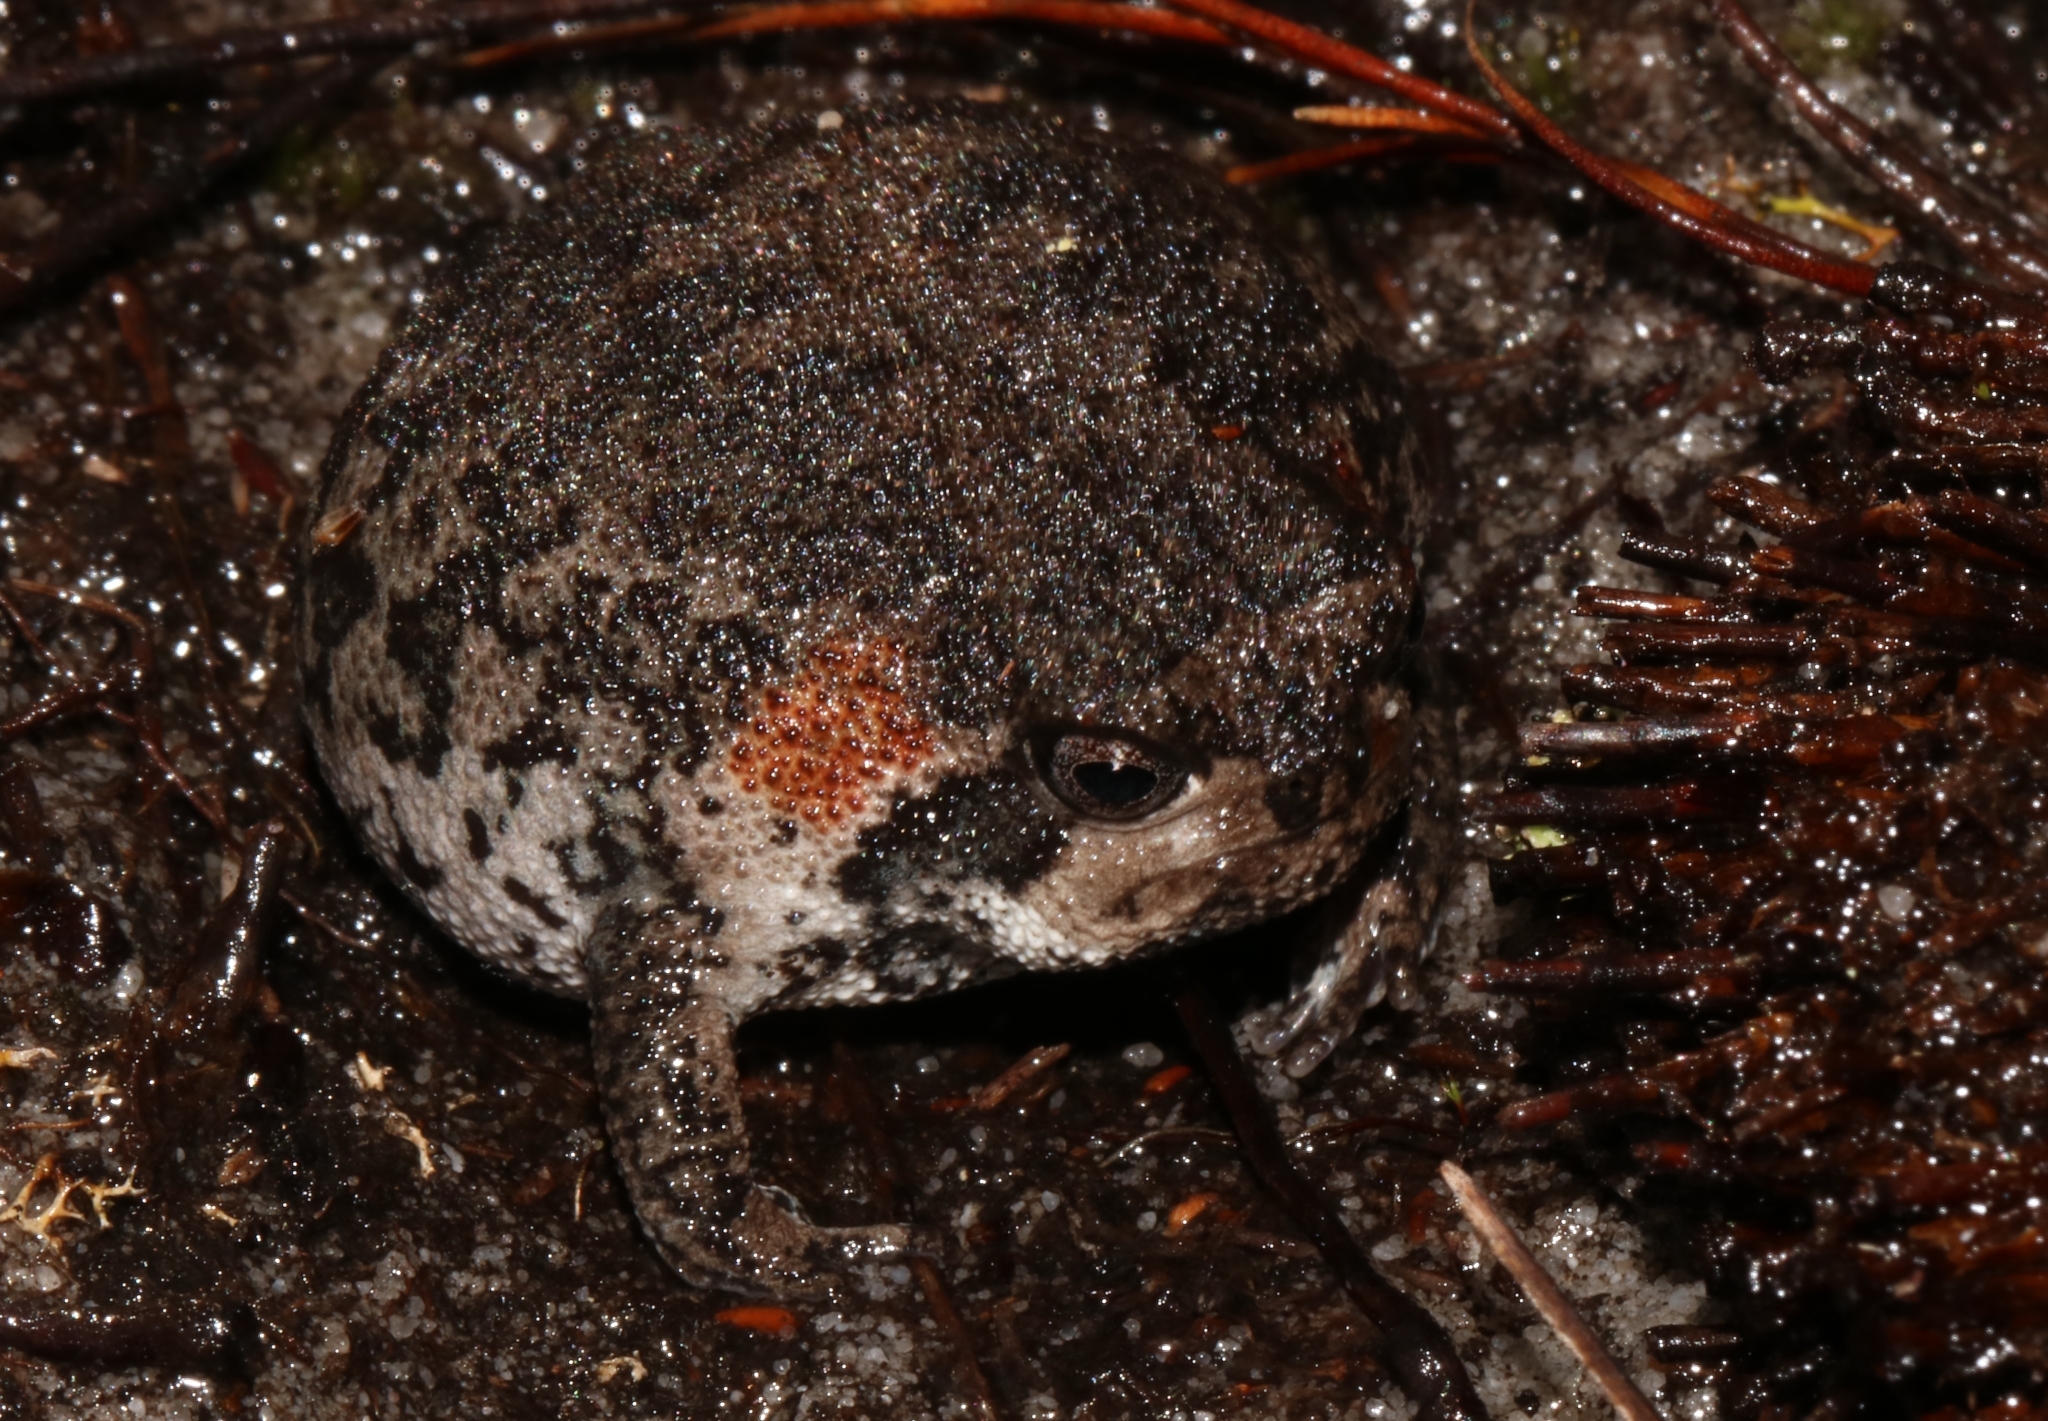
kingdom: Animalia
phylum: Chordata
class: Amphibia
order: Anura
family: Brevicipitidae
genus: Breviceps
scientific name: Breviceps montanus
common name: Mountain rain frog
